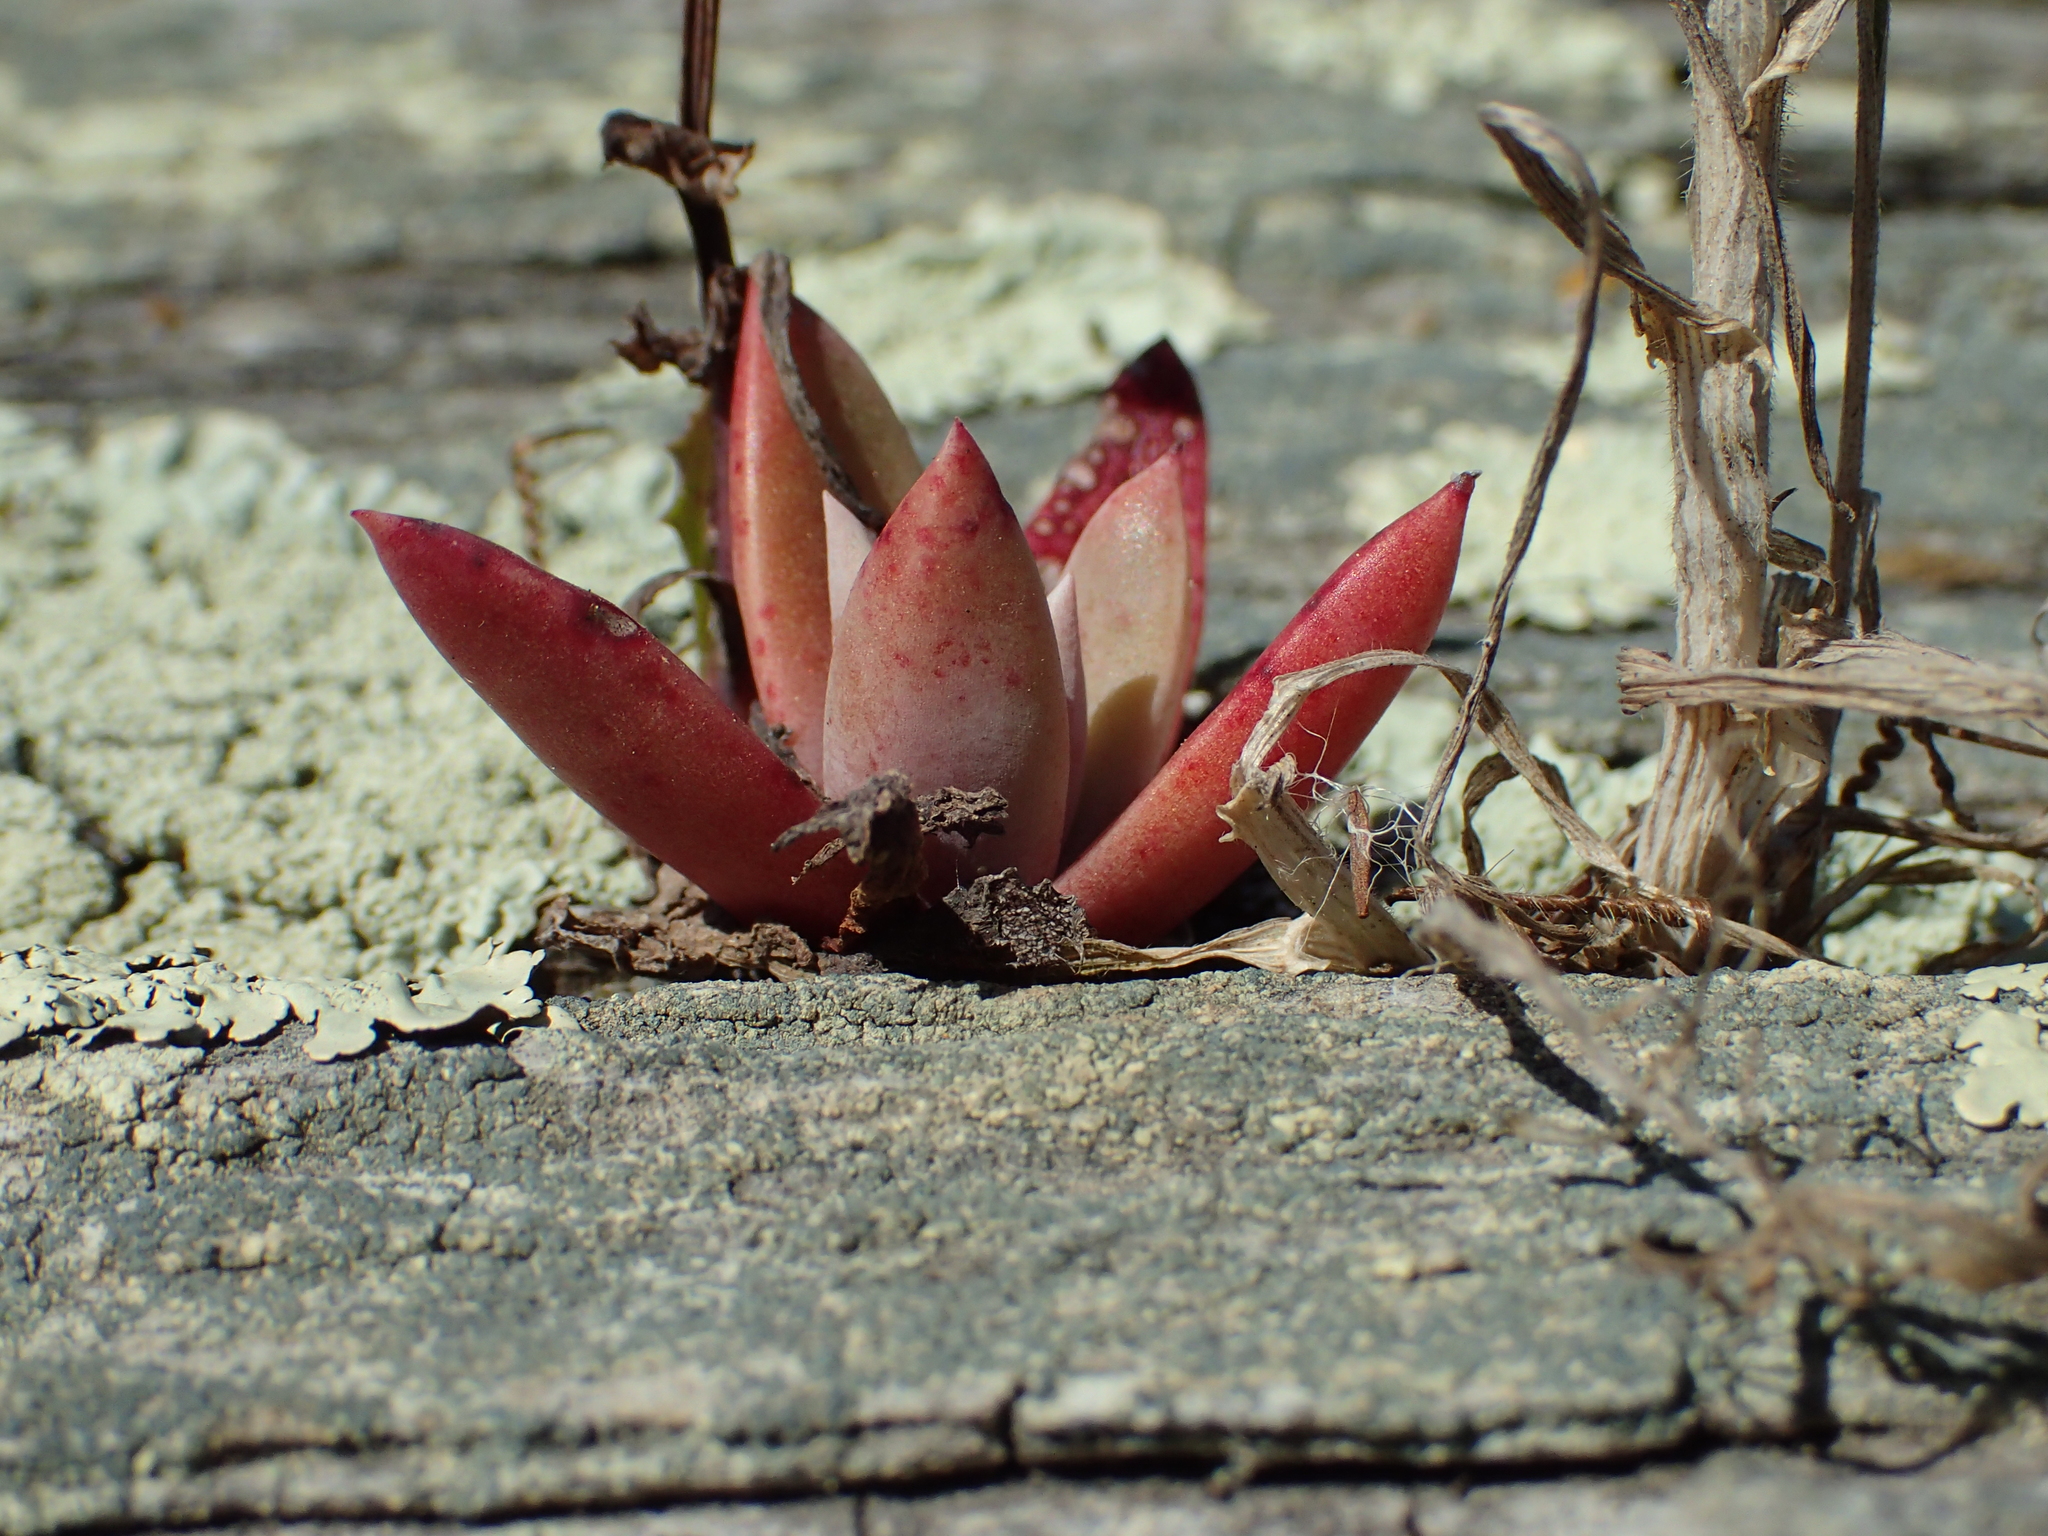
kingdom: Plantae
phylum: Tracheophyta
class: Magnoliopsida
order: Saxifragales
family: Crassulaceae
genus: Dudleya
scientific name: Dudleya caespitosa
